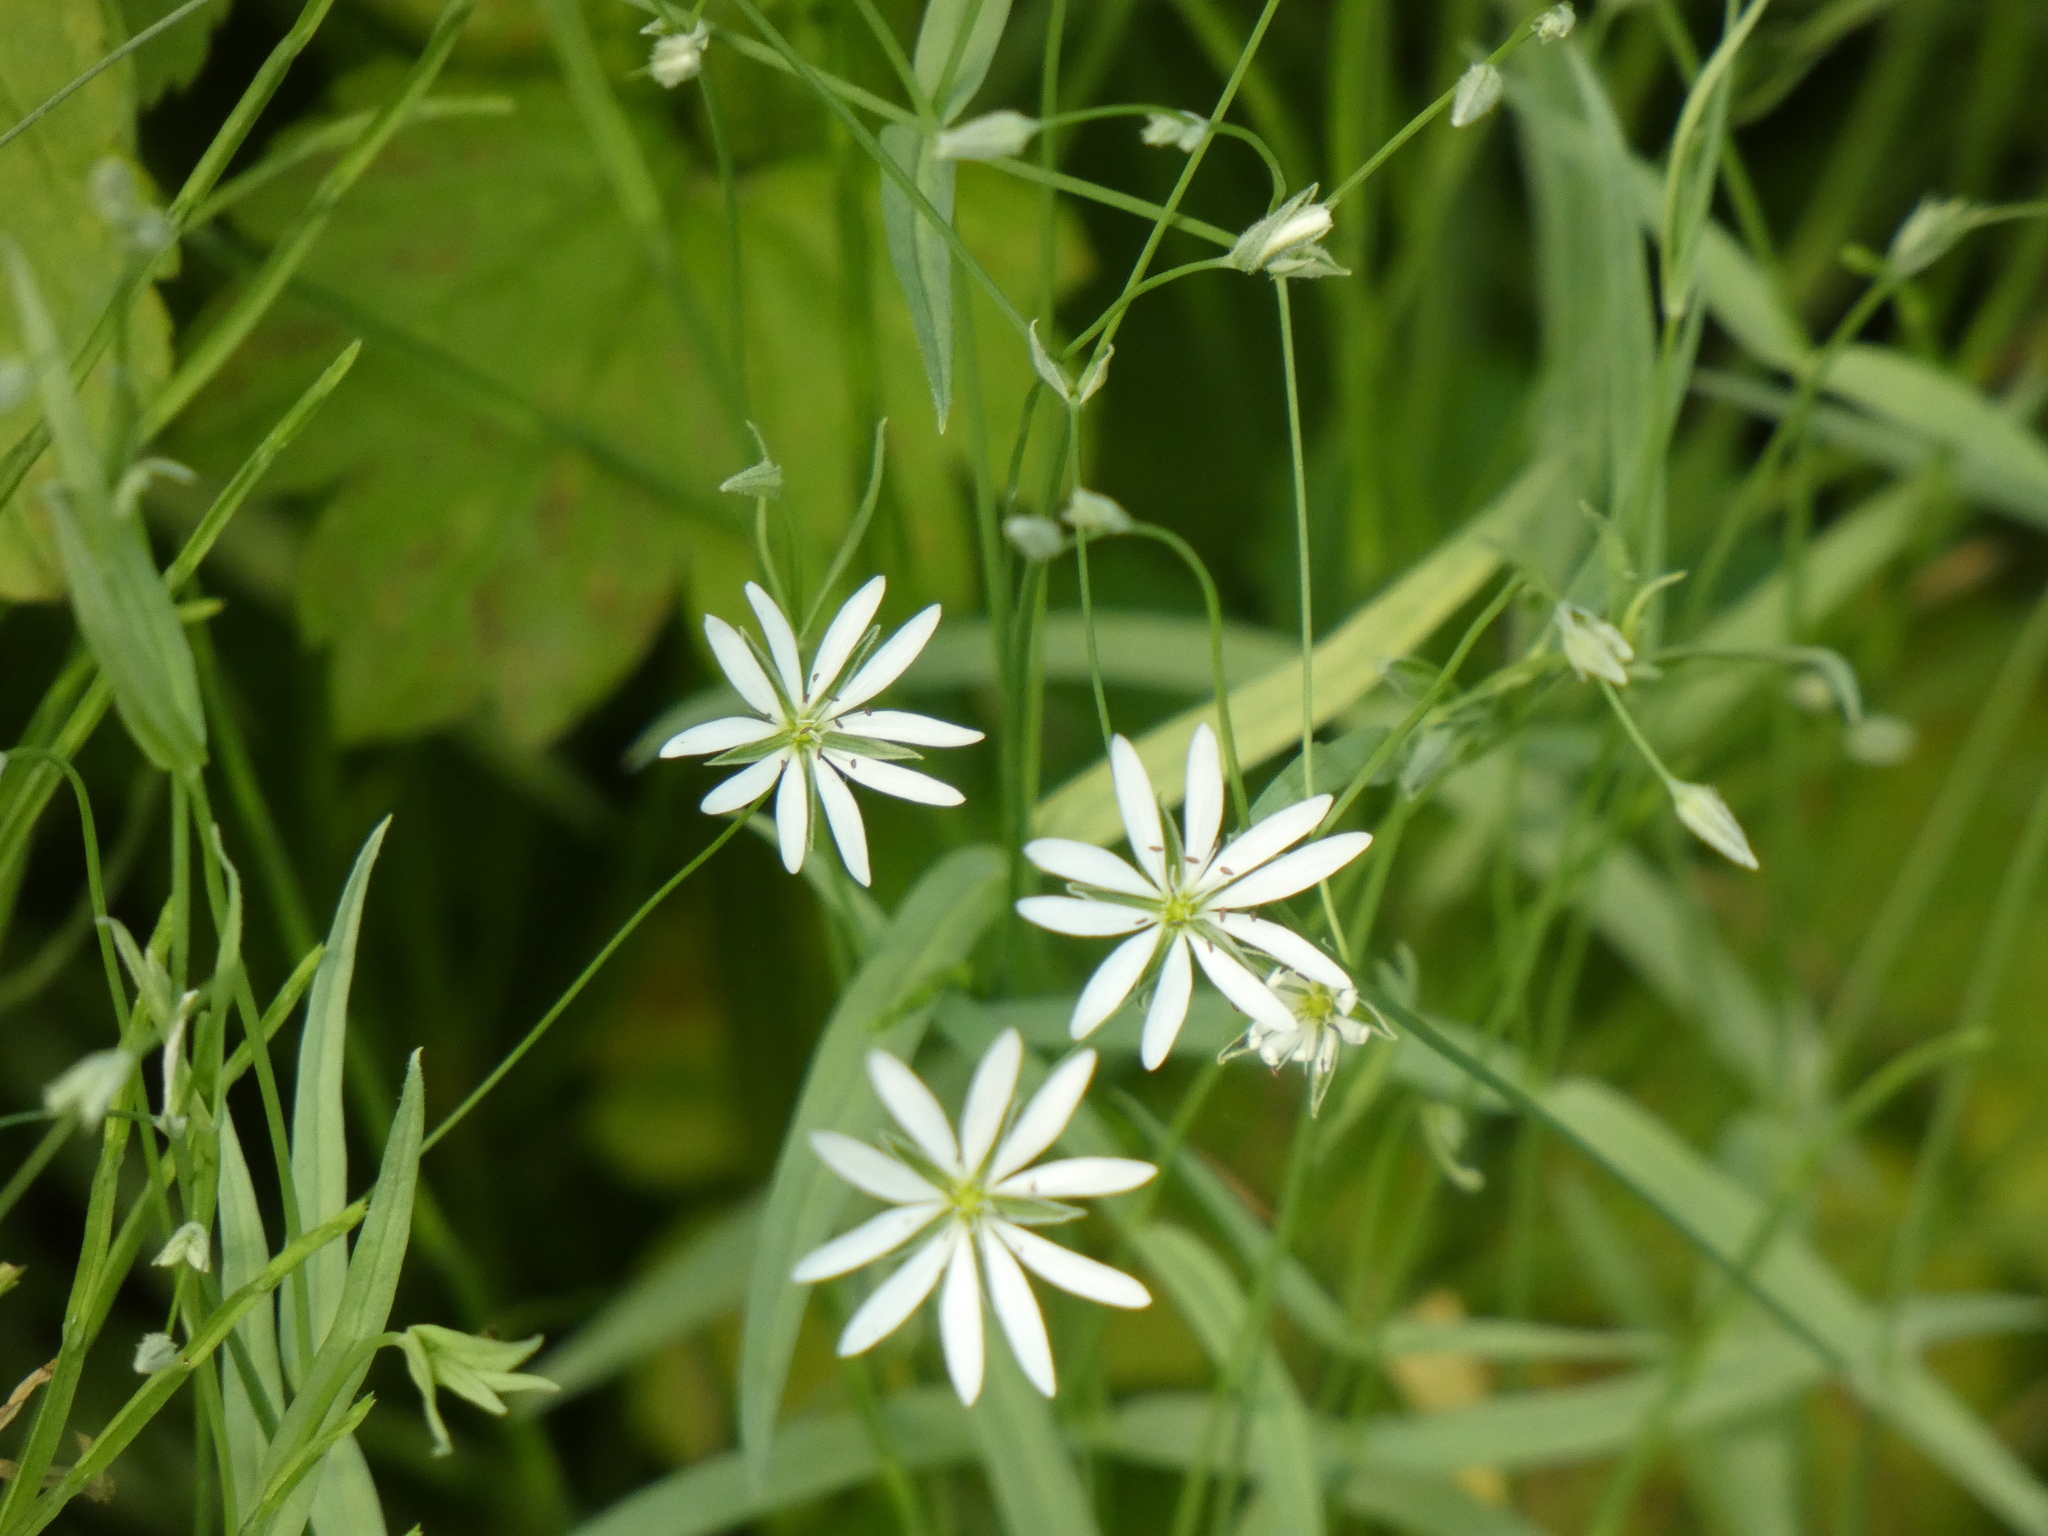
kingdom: Plantae
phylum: Tracheophyta
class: Magnoliopsida
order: Caryophyllales
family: Caryophyllaceae
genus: Stellaria
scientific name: Stellaria graminea
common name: Grass-like starwort
